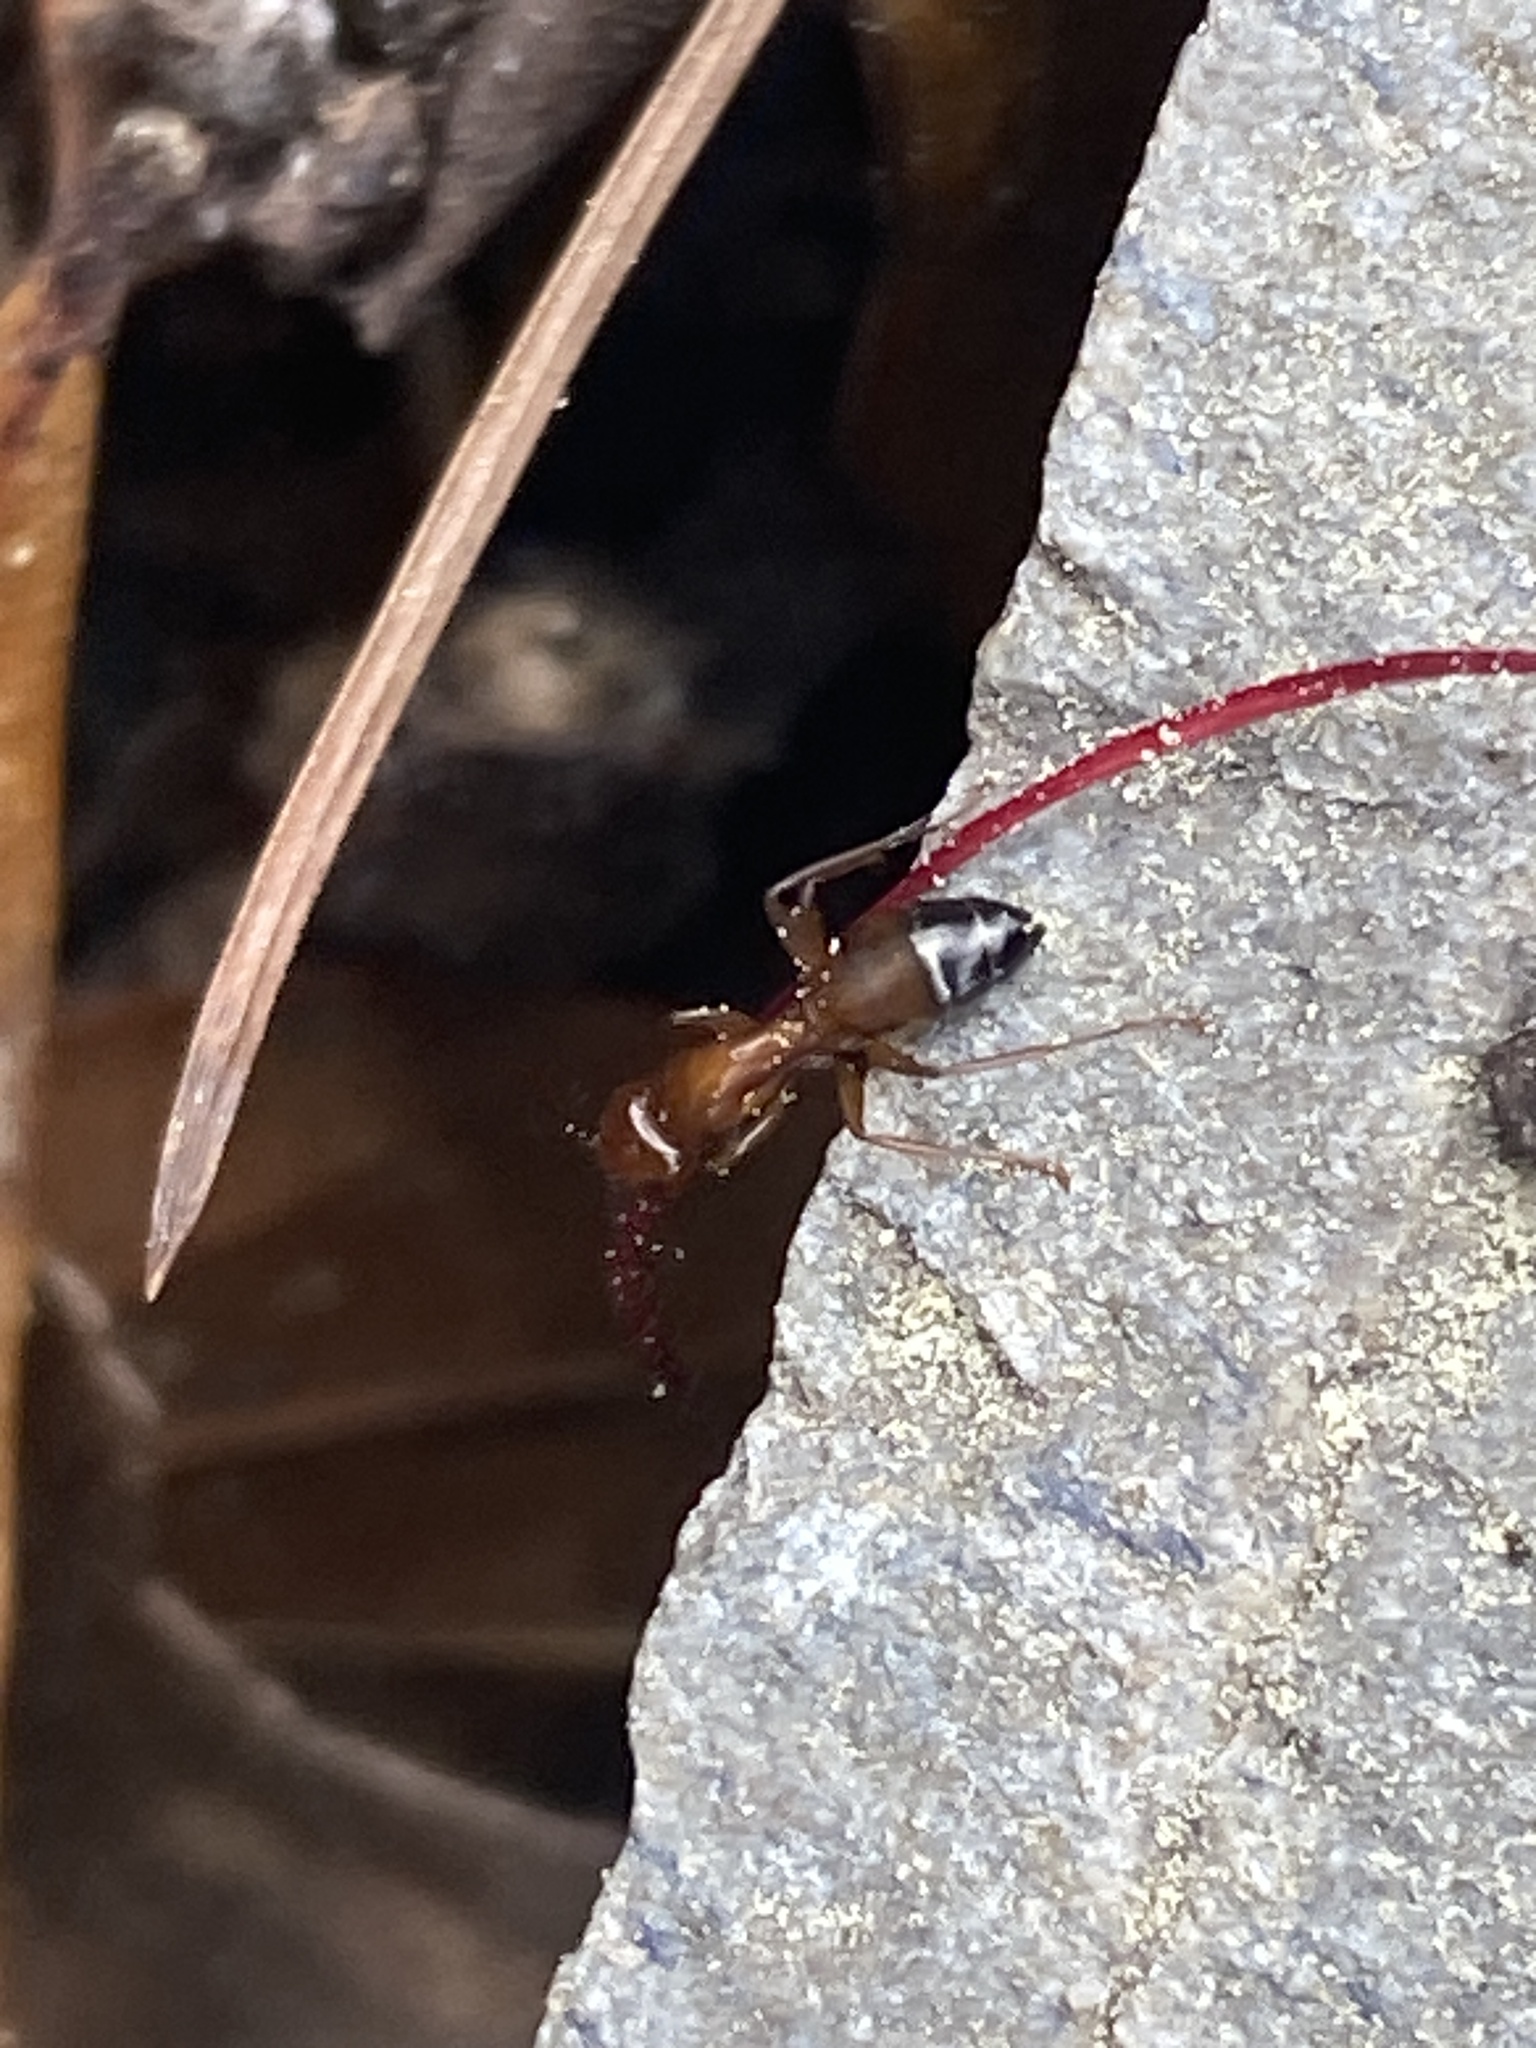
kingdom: Animalia
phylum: Arthropoda
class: Insecta
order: Hymenoptera
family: Formicidae
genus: Camponotus
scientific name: Camponotus snellingi
